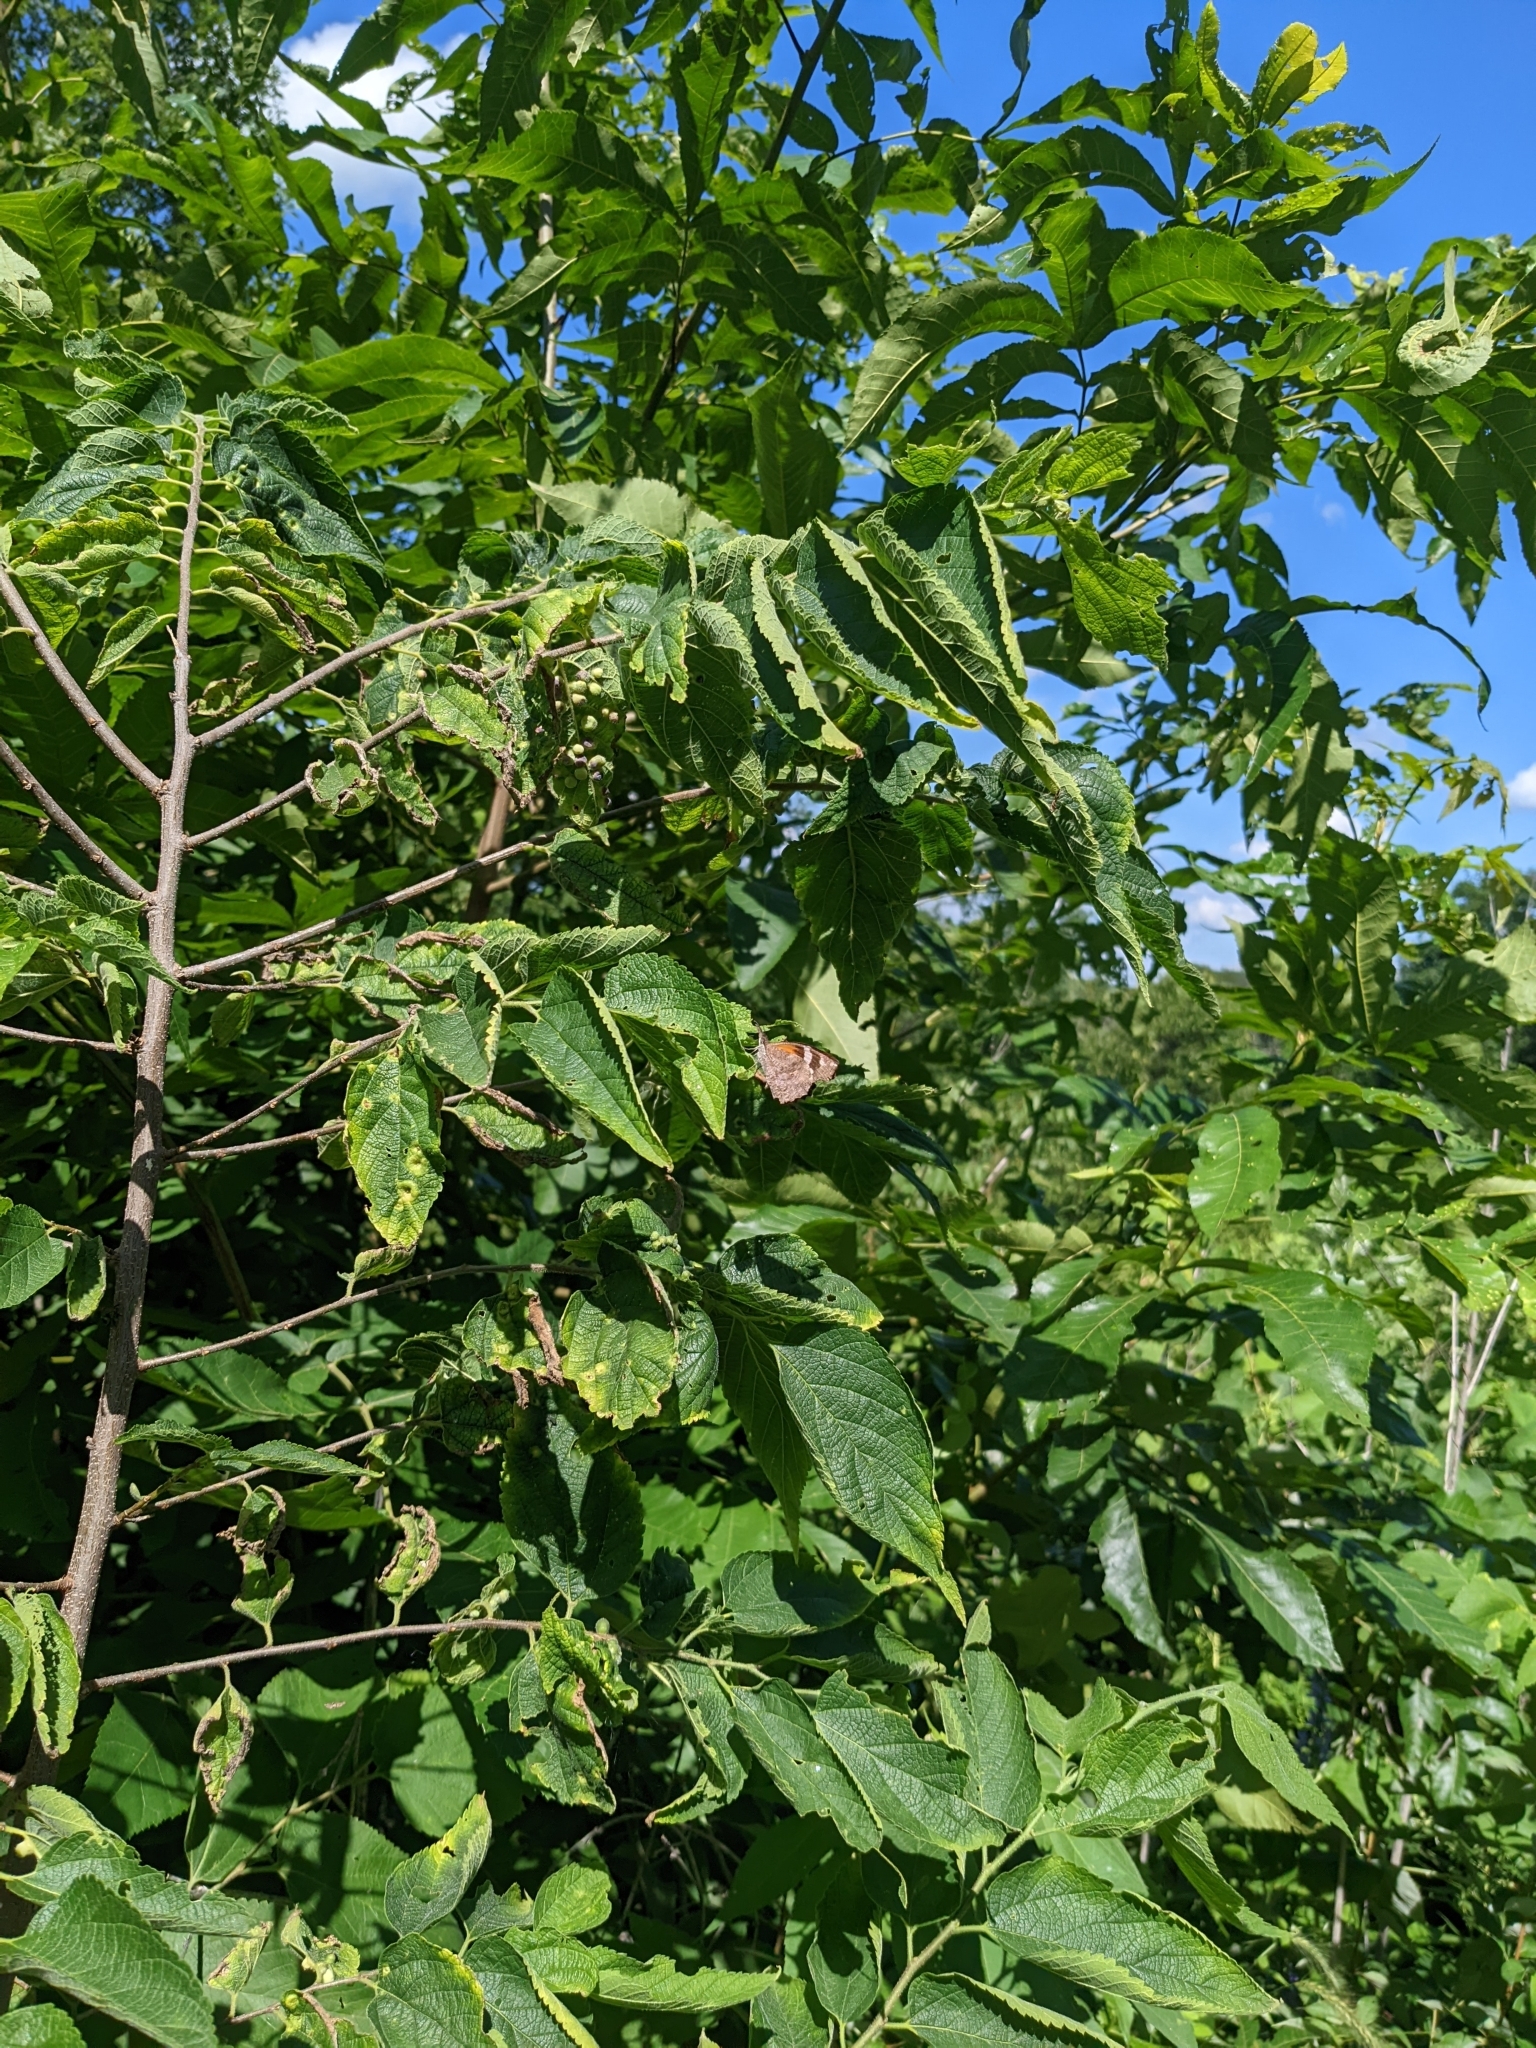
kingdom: Animalia
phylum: Arthropoda
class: Insecta
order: Lepidoptera
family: Nymphalidae
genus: Libytheana
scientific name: Libytheana carinenta
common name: American snout
